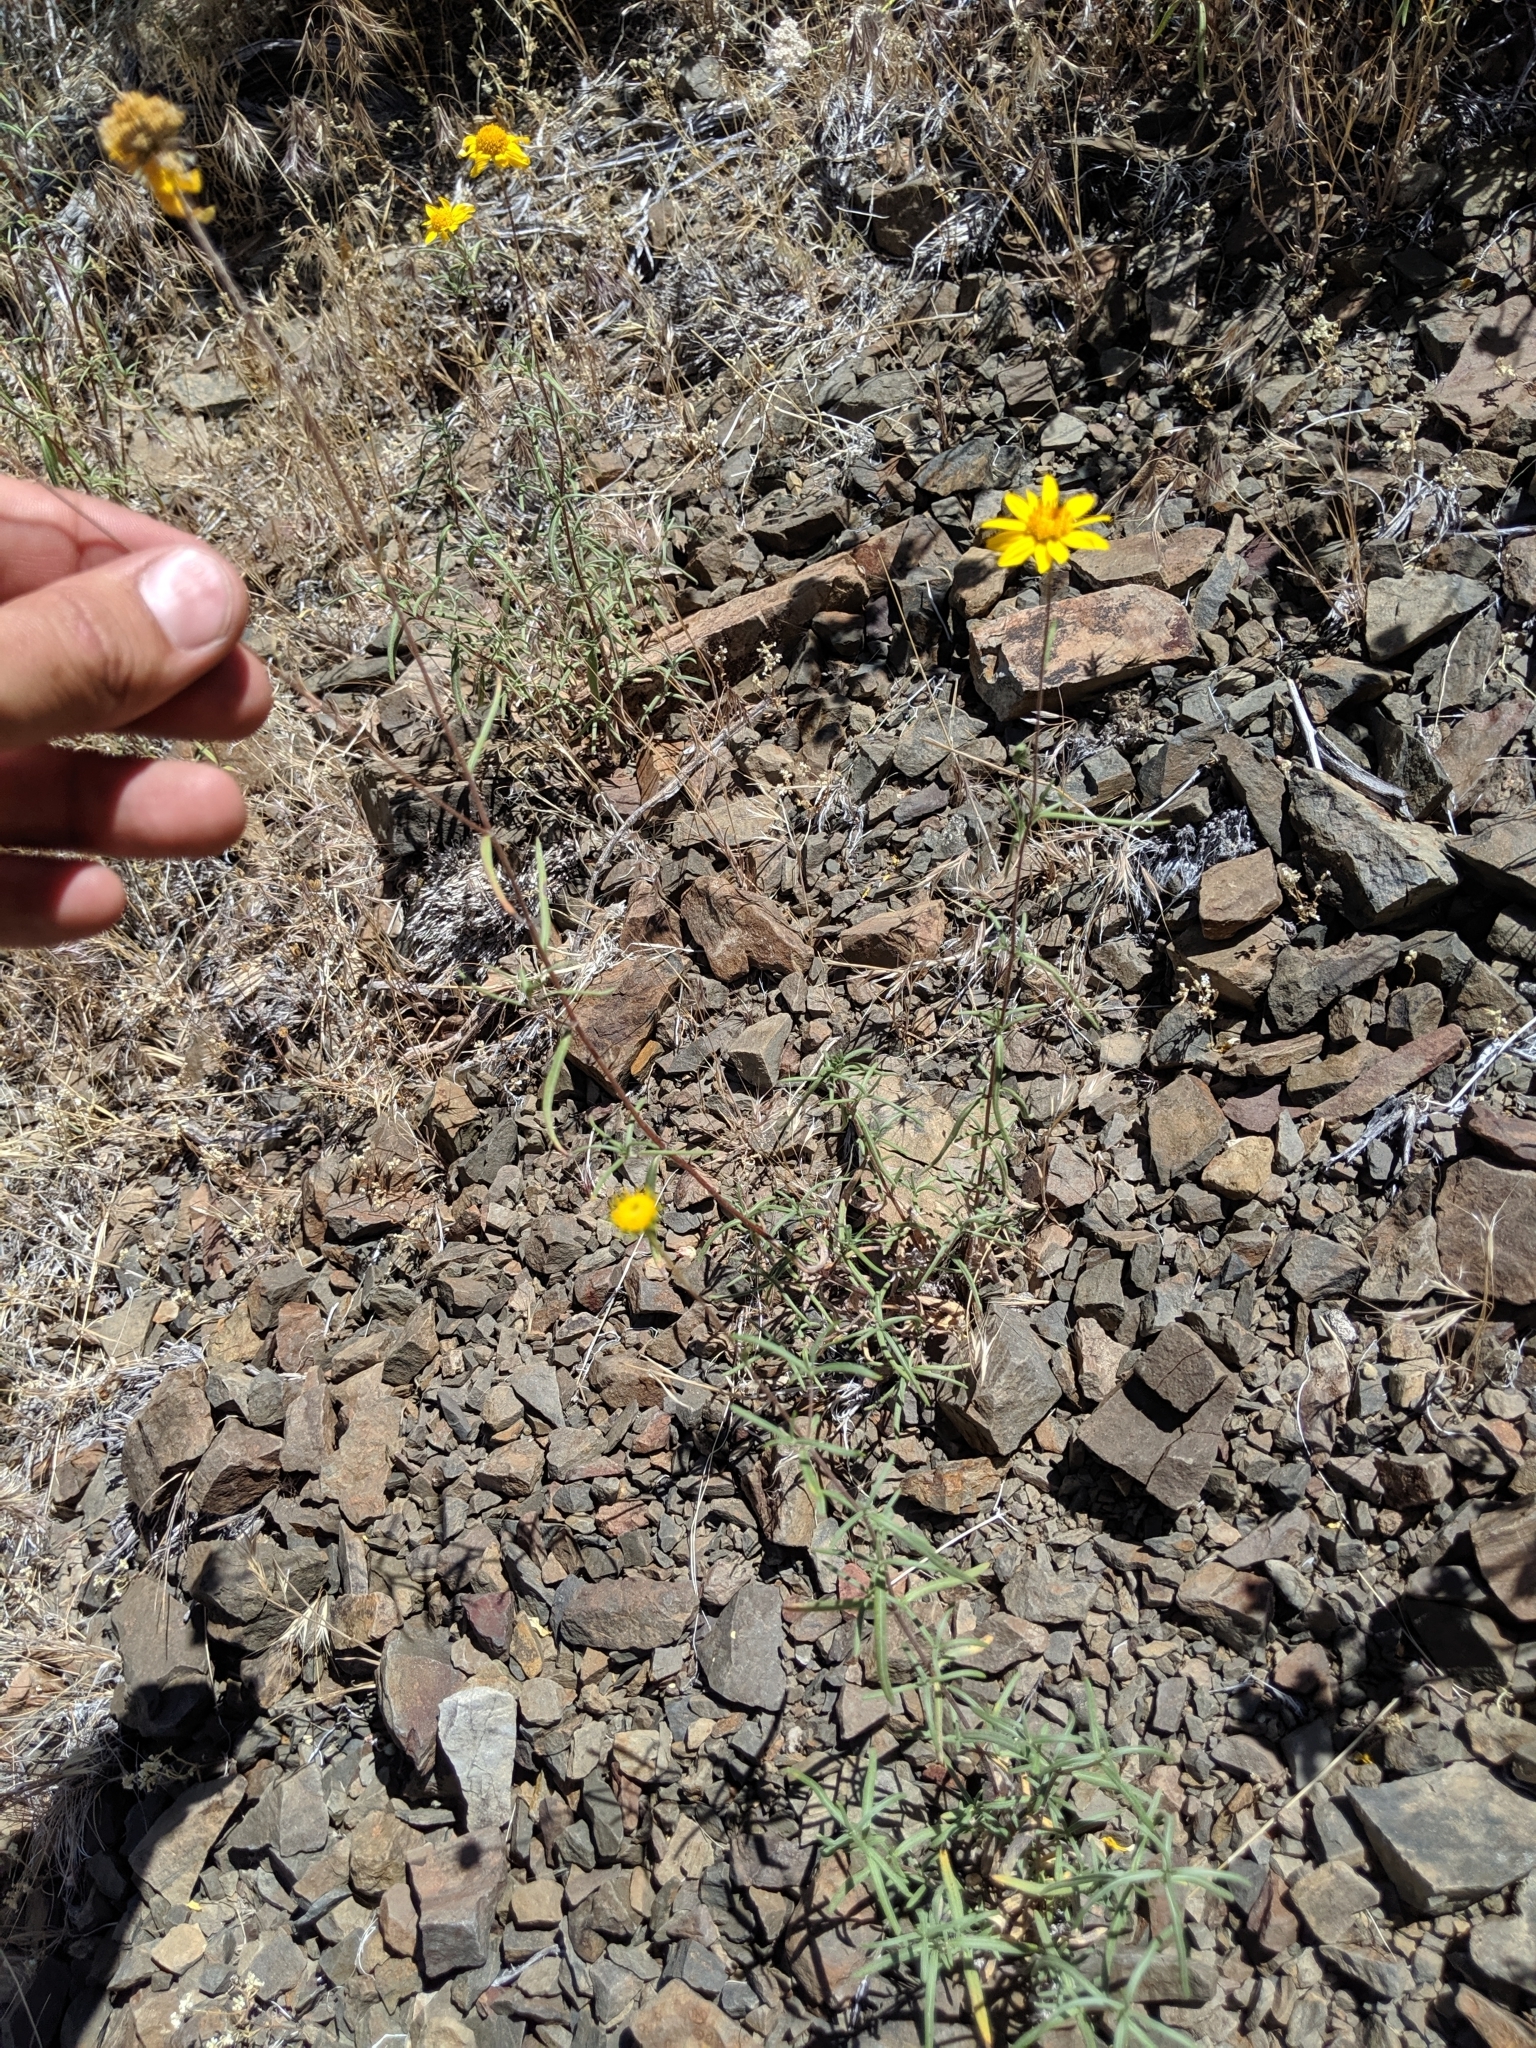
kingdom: Plantae
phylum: Tracheophyta
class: Magnoliopsida
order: Asterales
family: Asteraceae
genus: Heliomeris
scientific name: Heliomeris multiflora
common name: Showy goldeneye
